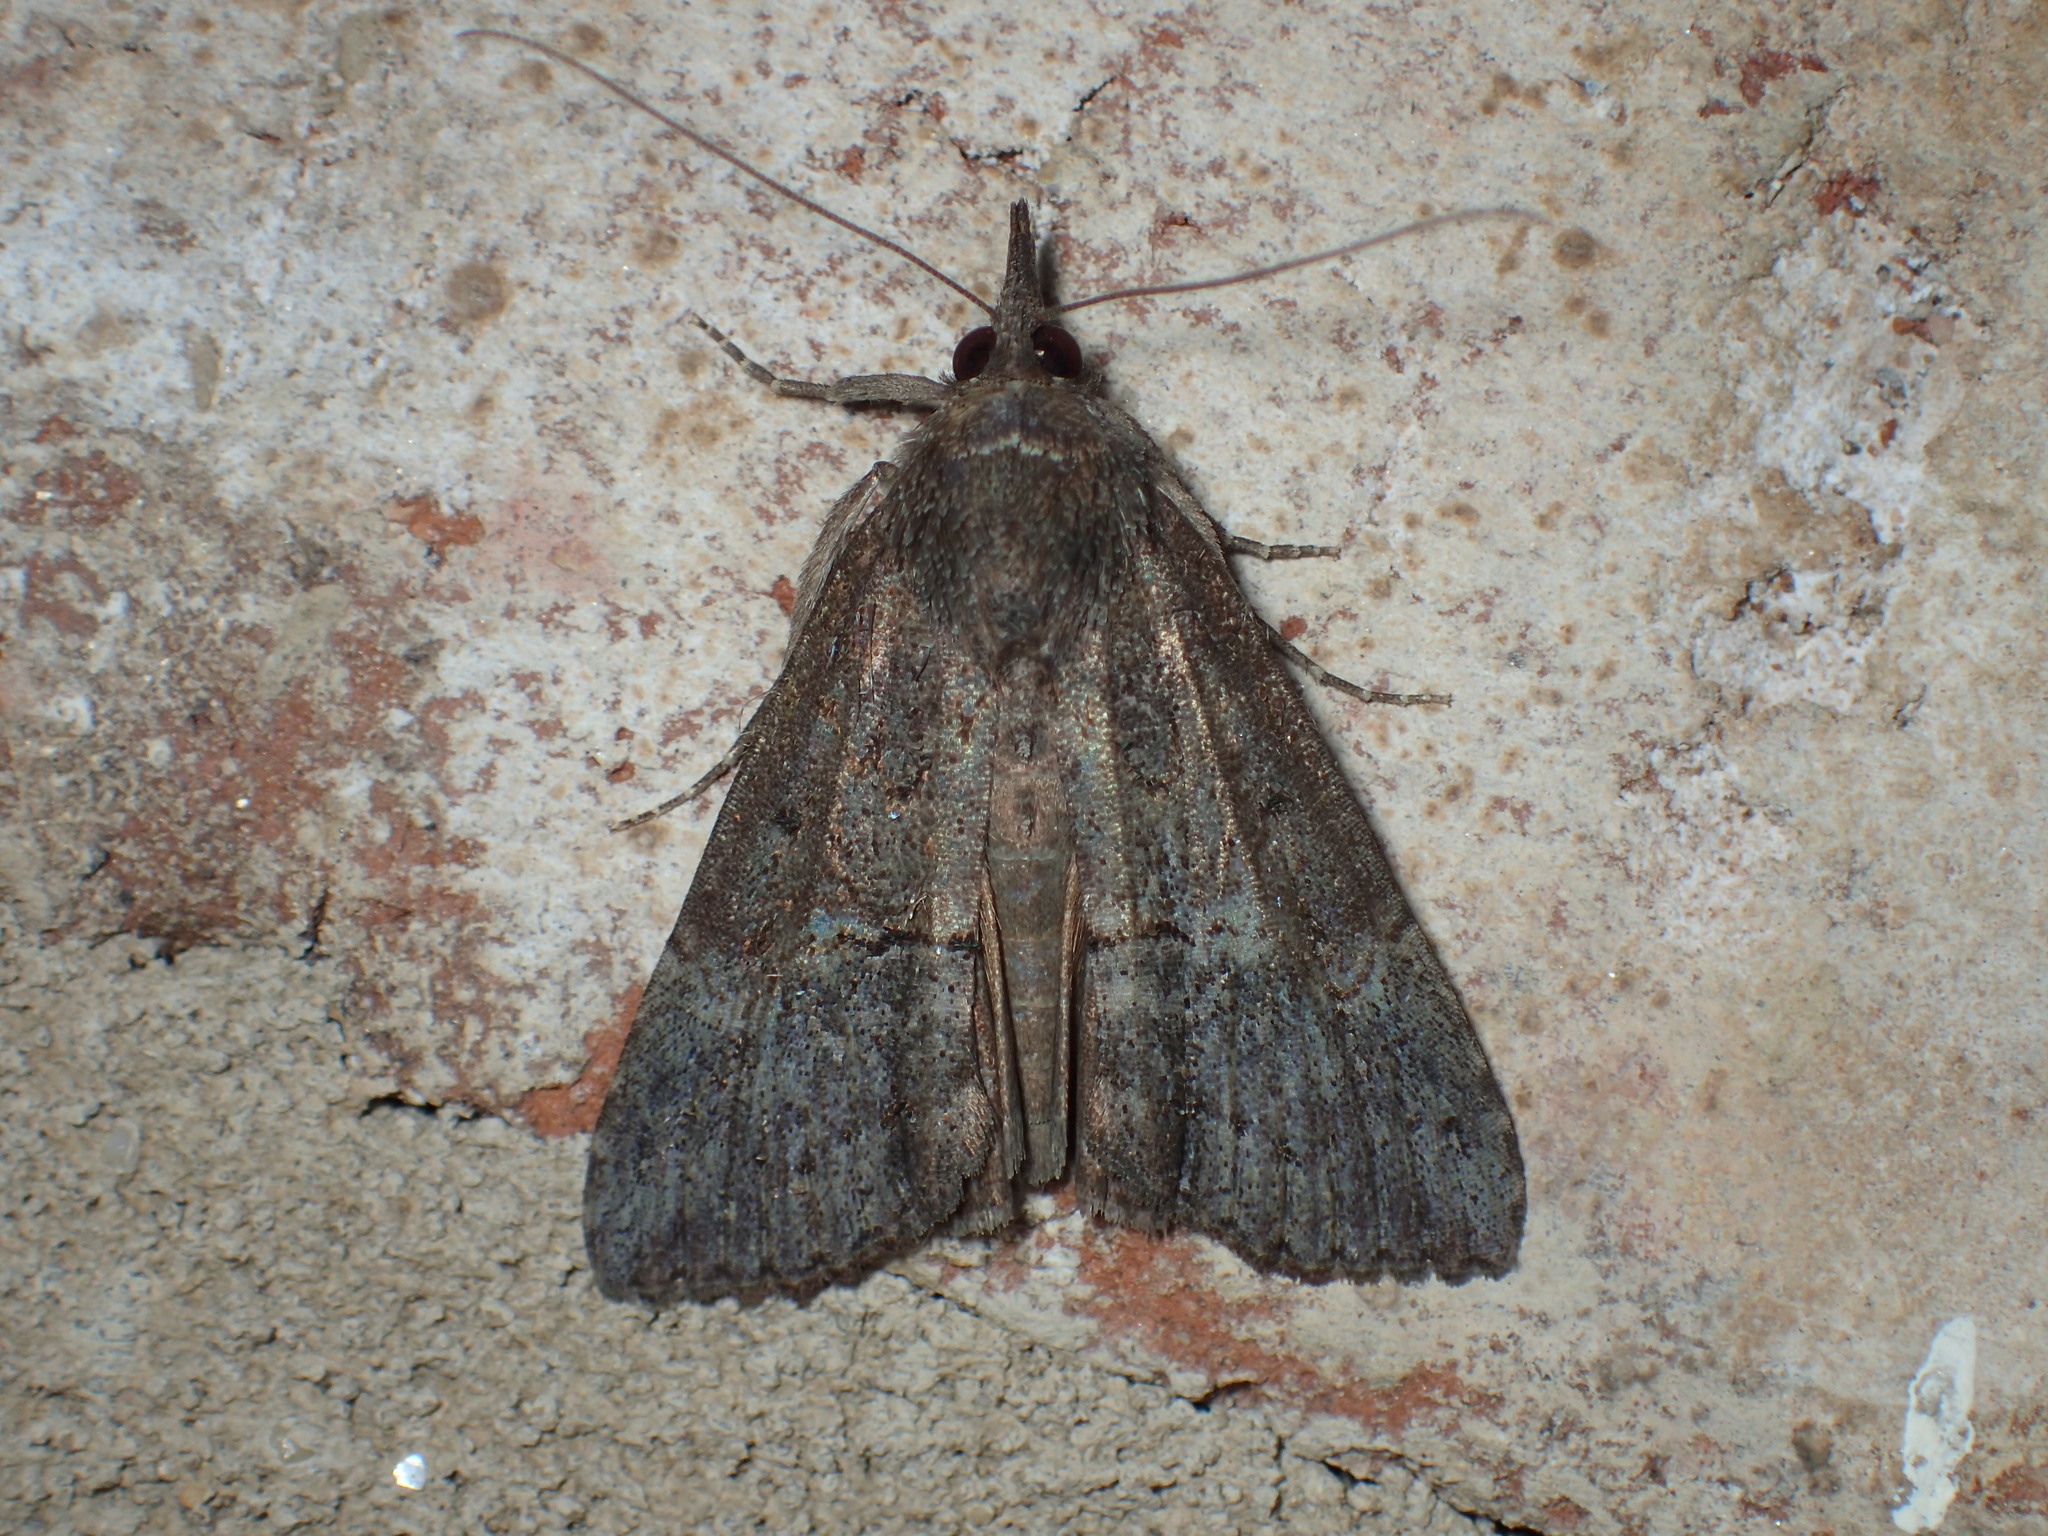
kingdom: Animalia
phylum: Arthropoda
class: Insecta
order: Lepidoptera
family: Erebidae
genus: Hypena
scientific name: Hypena scabra
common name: Green cloverworm
